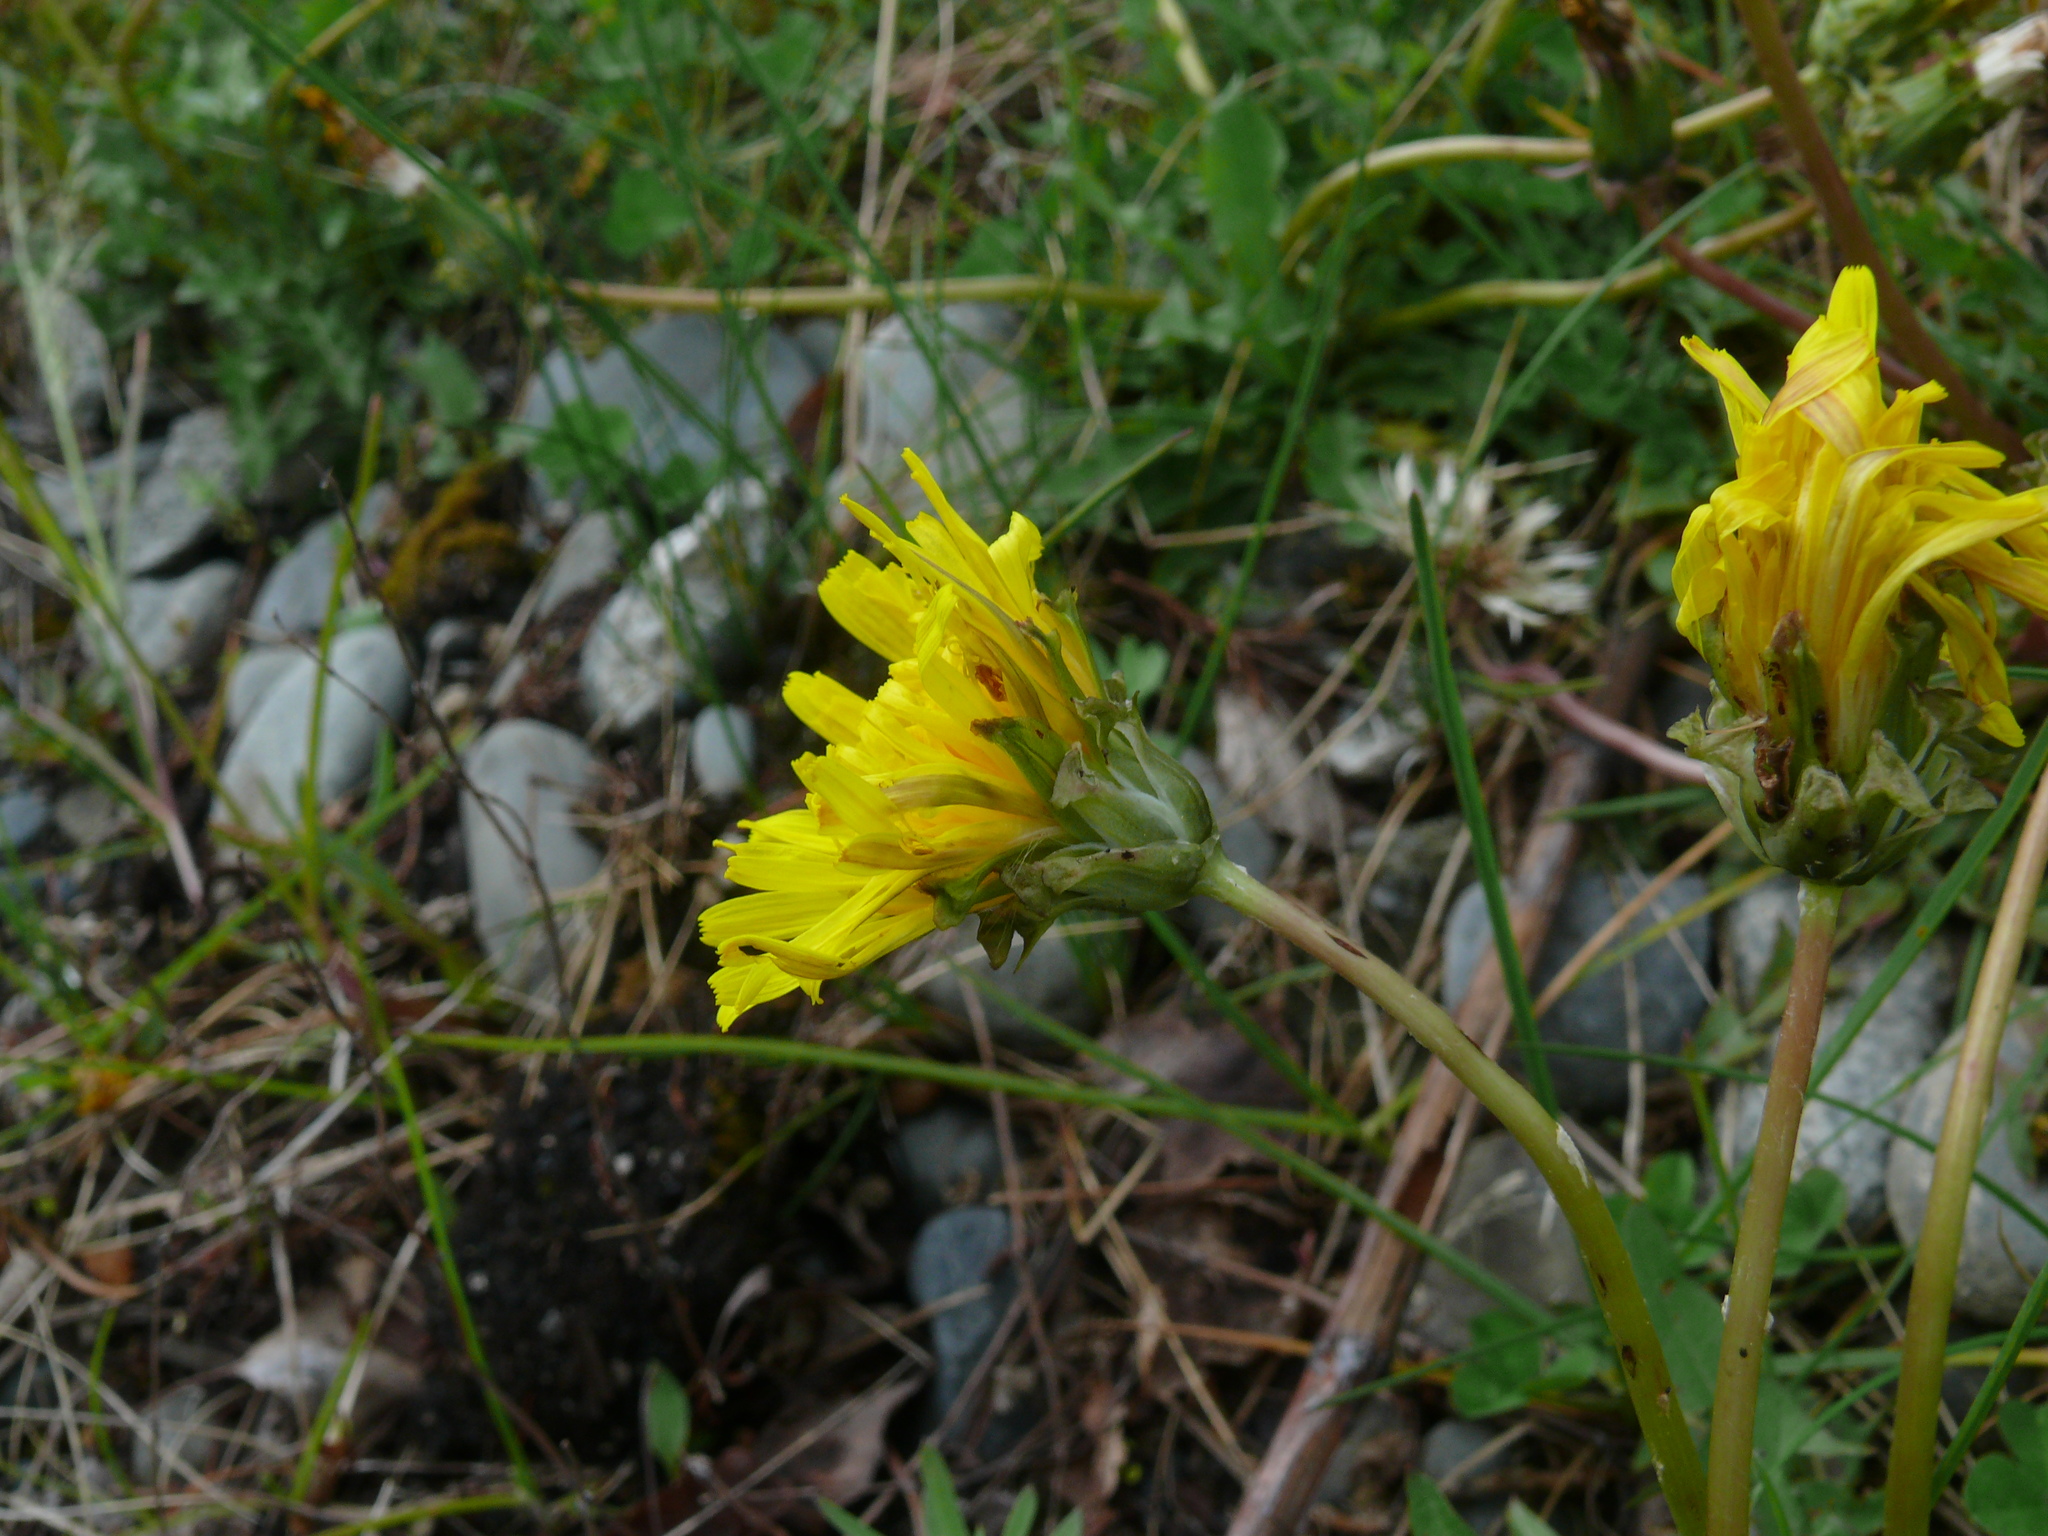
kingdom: Plantae
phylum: Tracheophyta
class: Magnoliopsida
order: Asterales
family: Asteraceae
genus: Taraxacum
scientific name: Taraxacum ceratophorum
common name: Horn-bearing dandelion
